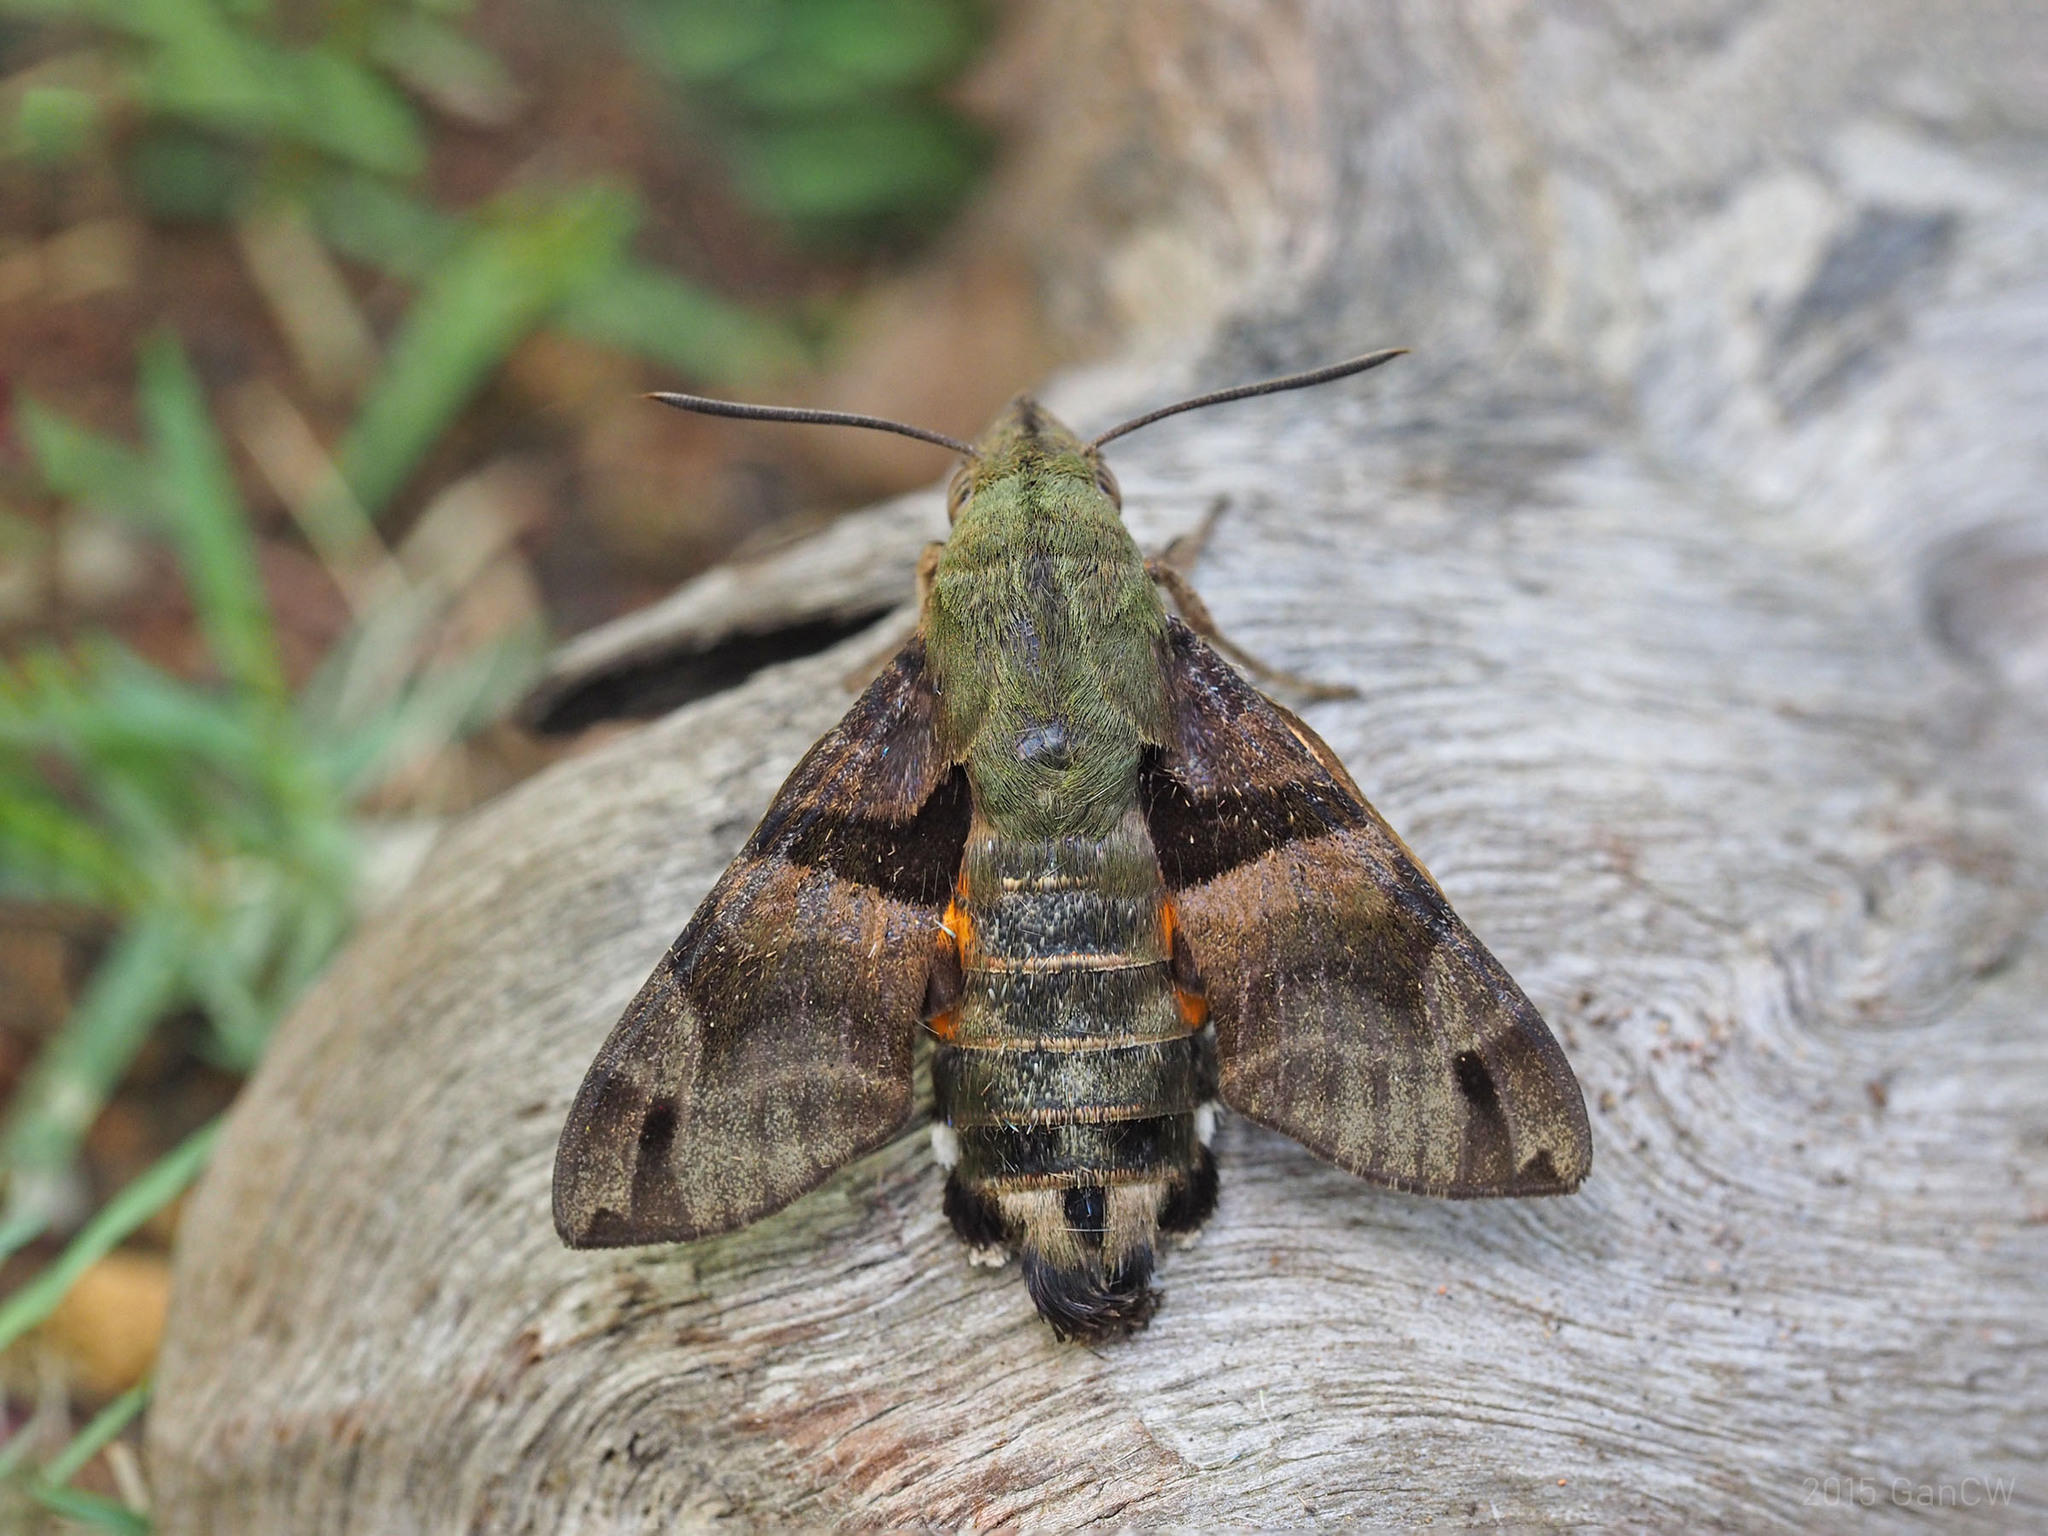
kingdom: Animalia
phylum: Arthropoda
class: Insecta
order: Lepidoptera
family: Sphingidae
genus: Macroglossum
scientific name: Macroglossum sitiene
